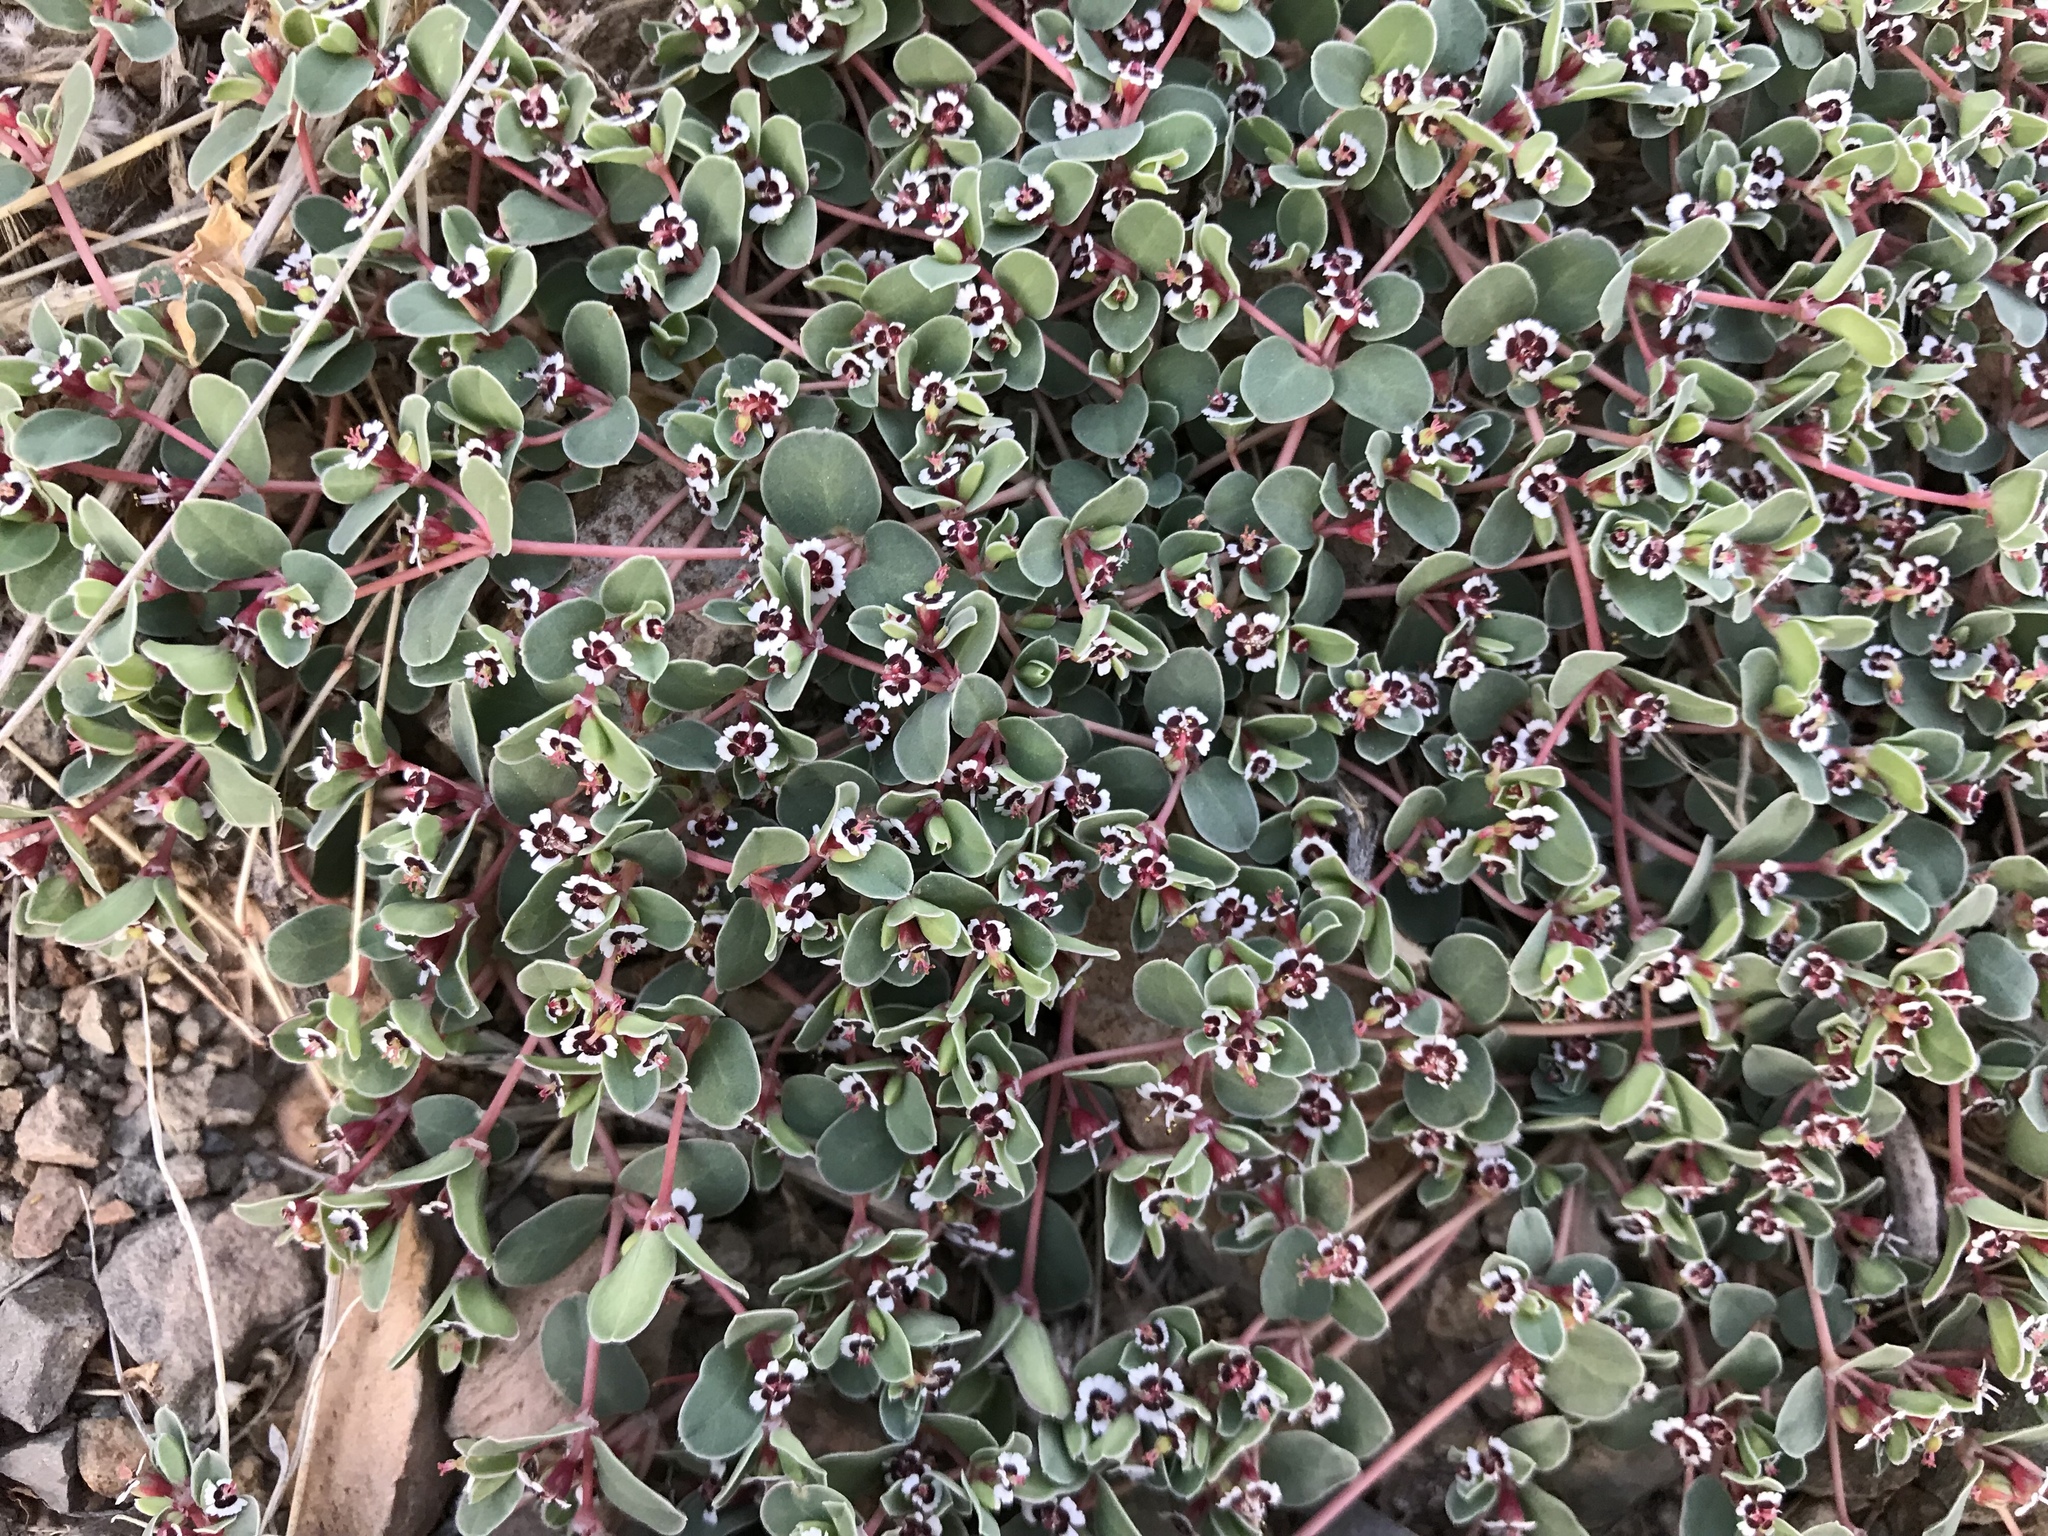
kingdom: Plantae
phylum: Tracheophyta
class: Magnoliopsida
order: Malpighiales
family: Euphorbiaceae
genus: Euphorbia
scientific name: Euphorbia albomarginata
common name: Whitemargin sandmat
